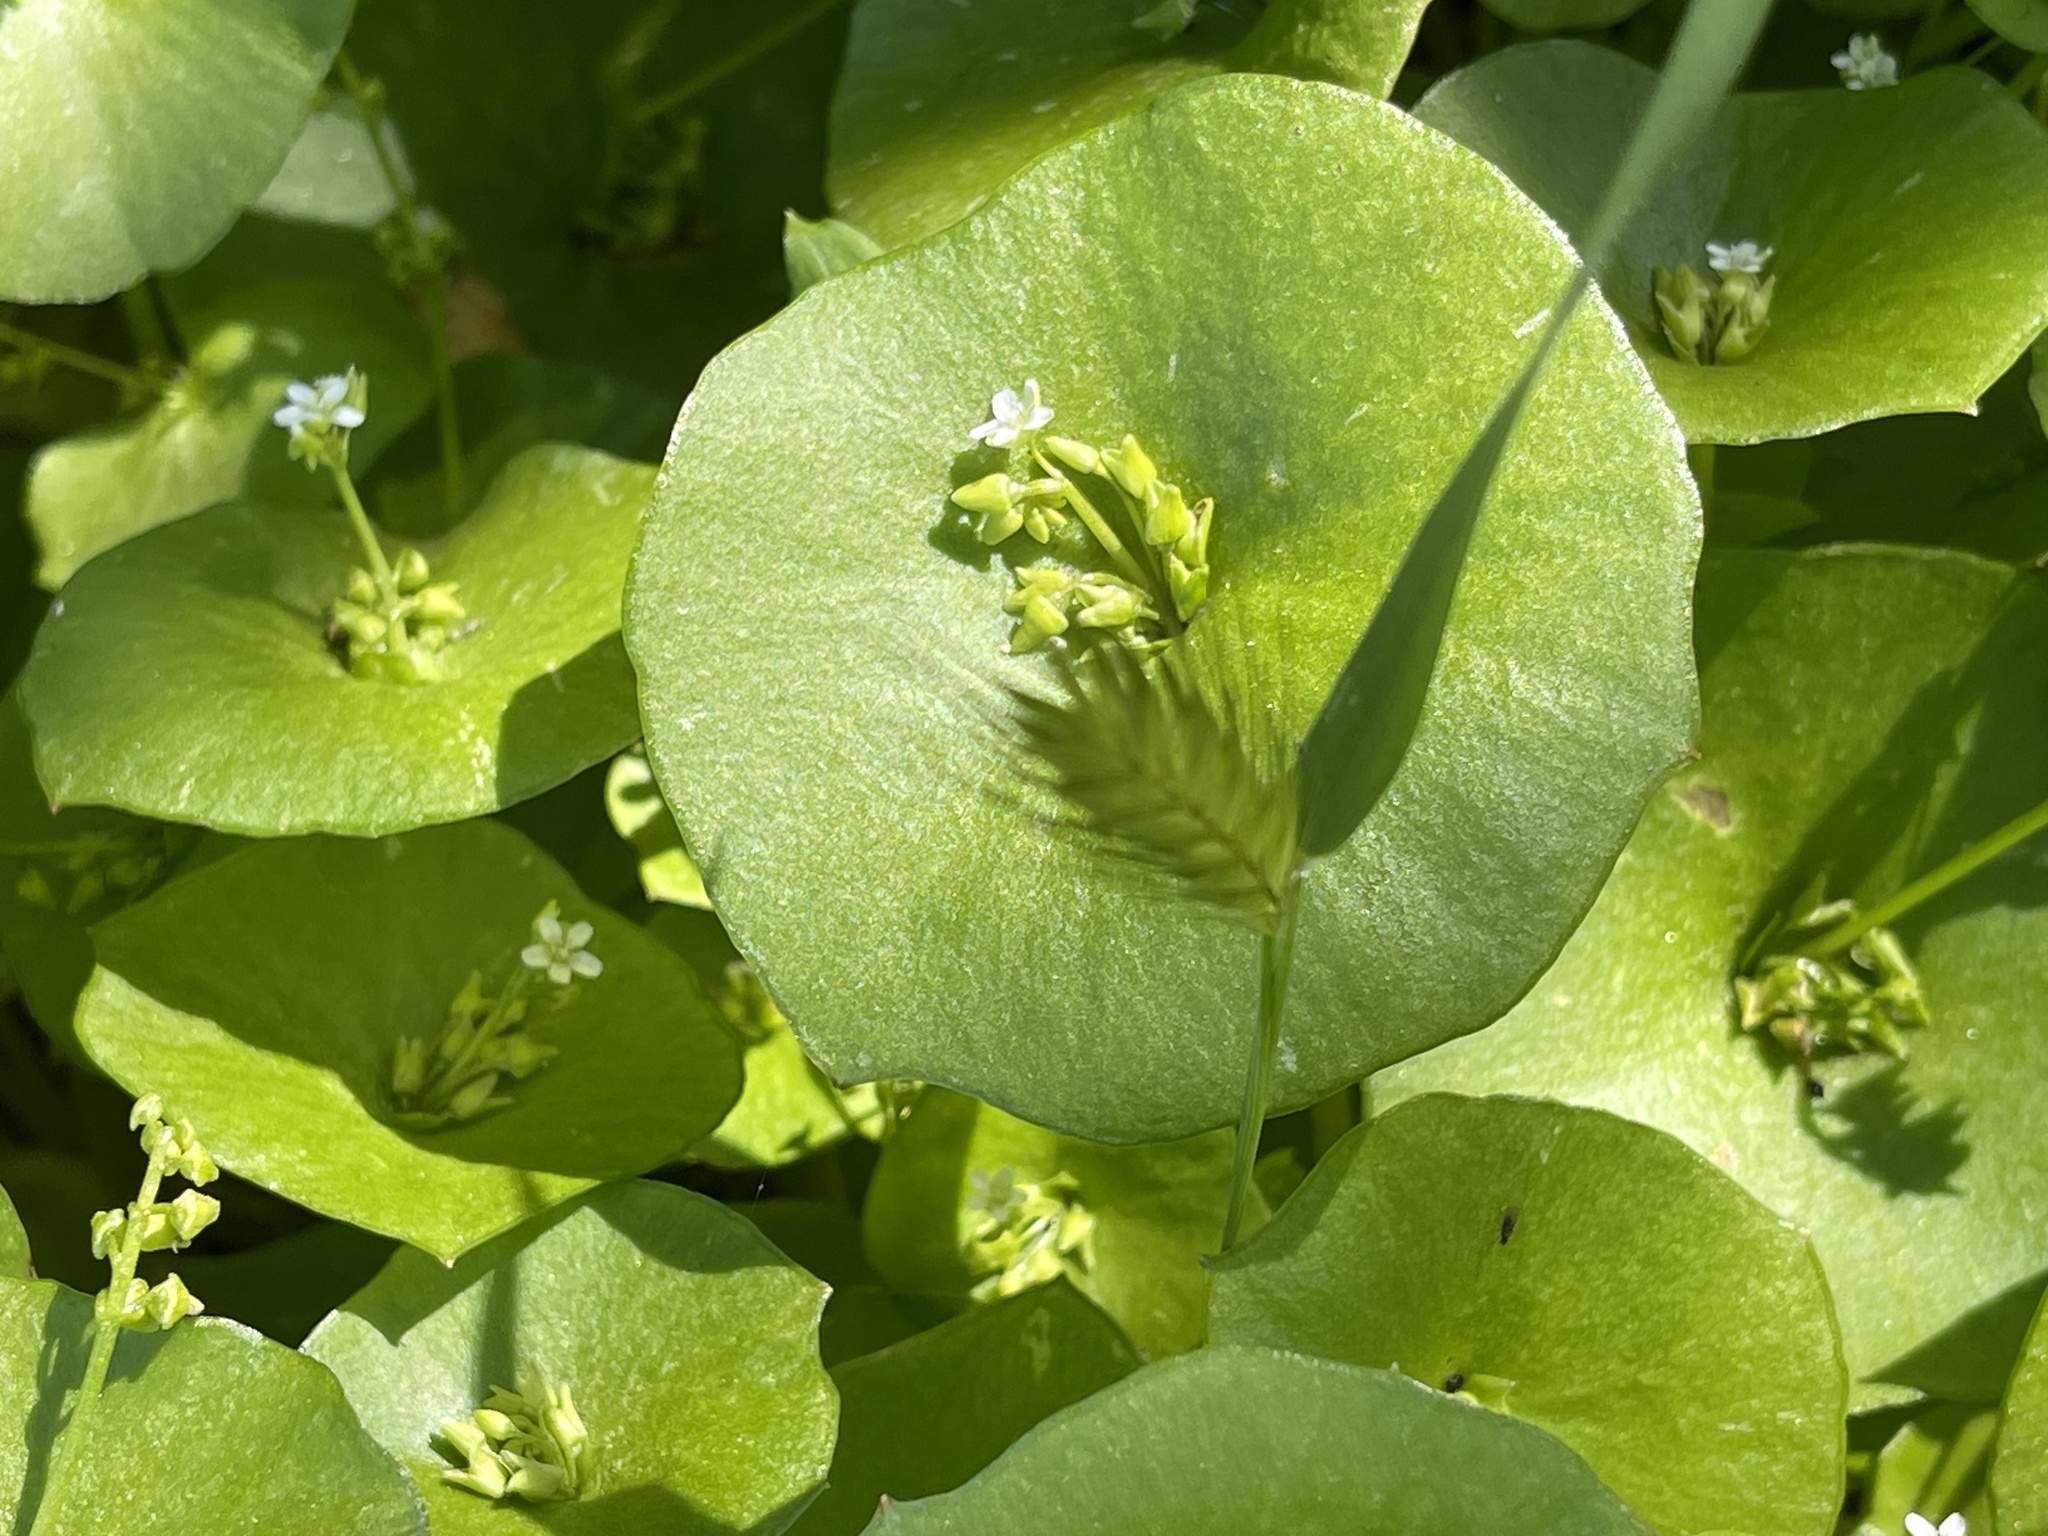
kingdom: Plantae
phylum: Tracheophyta
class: Magnoliopsida
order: Caryophyllales
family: Montiaceae
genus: Claytonia
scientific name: Claytonia perfoliata
